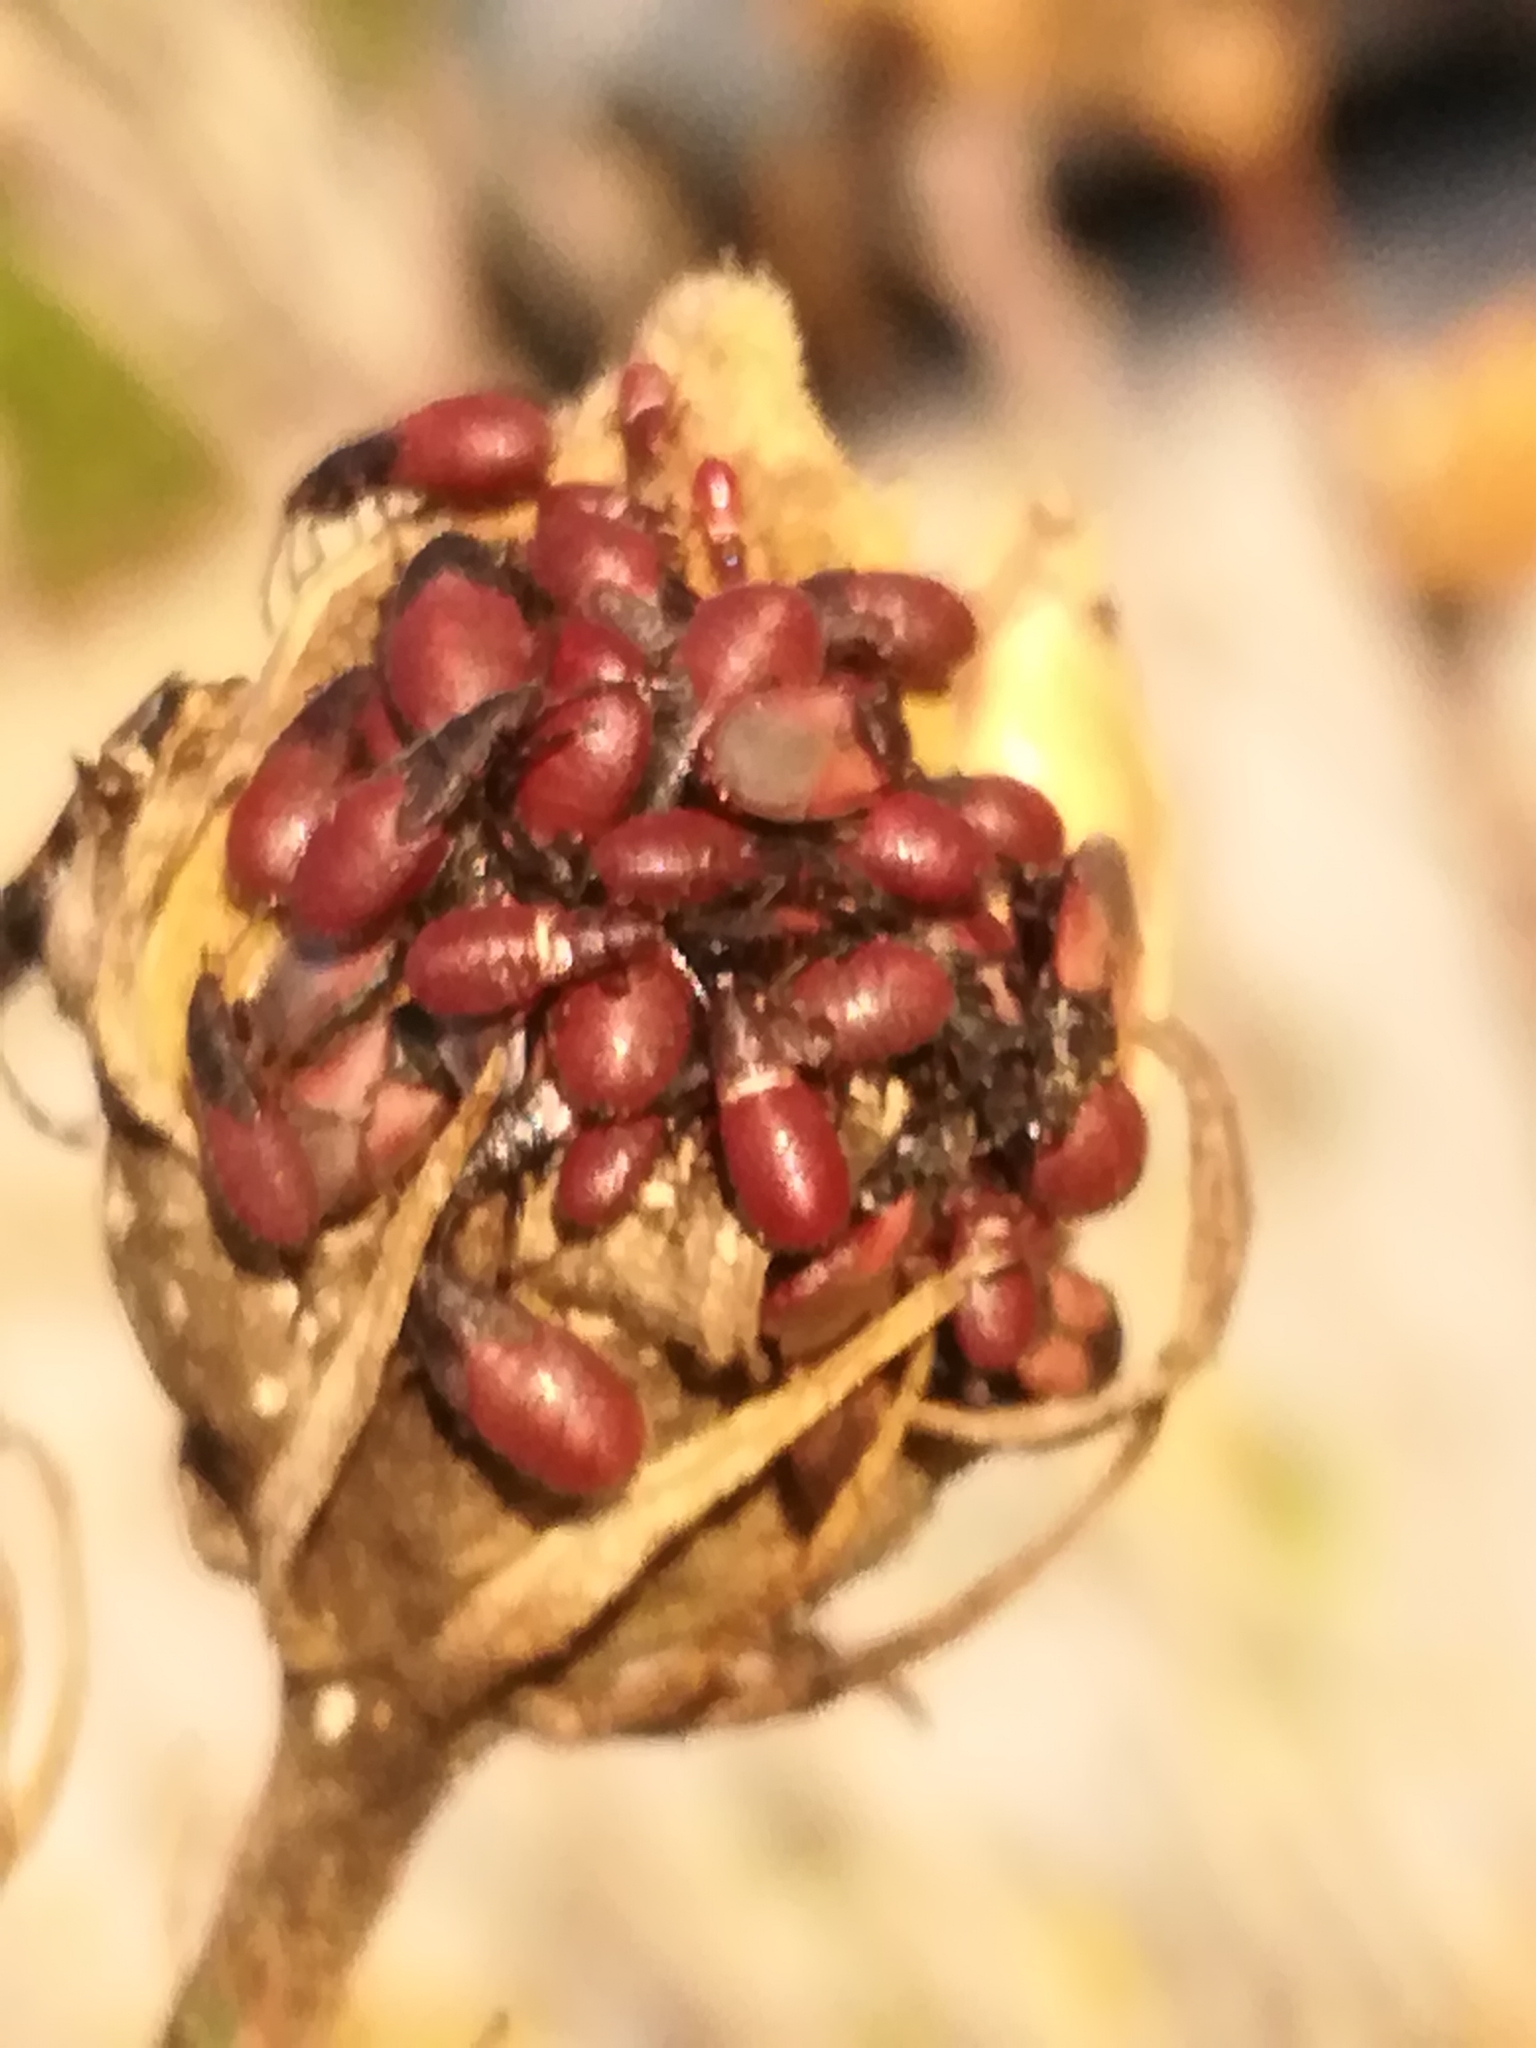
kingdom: Animalia
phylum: Arthropoda
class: Insecta
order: Hemiptera
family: Oxycarenidae
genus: Oxycarenus
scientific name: Oxycarenus lavaterae
